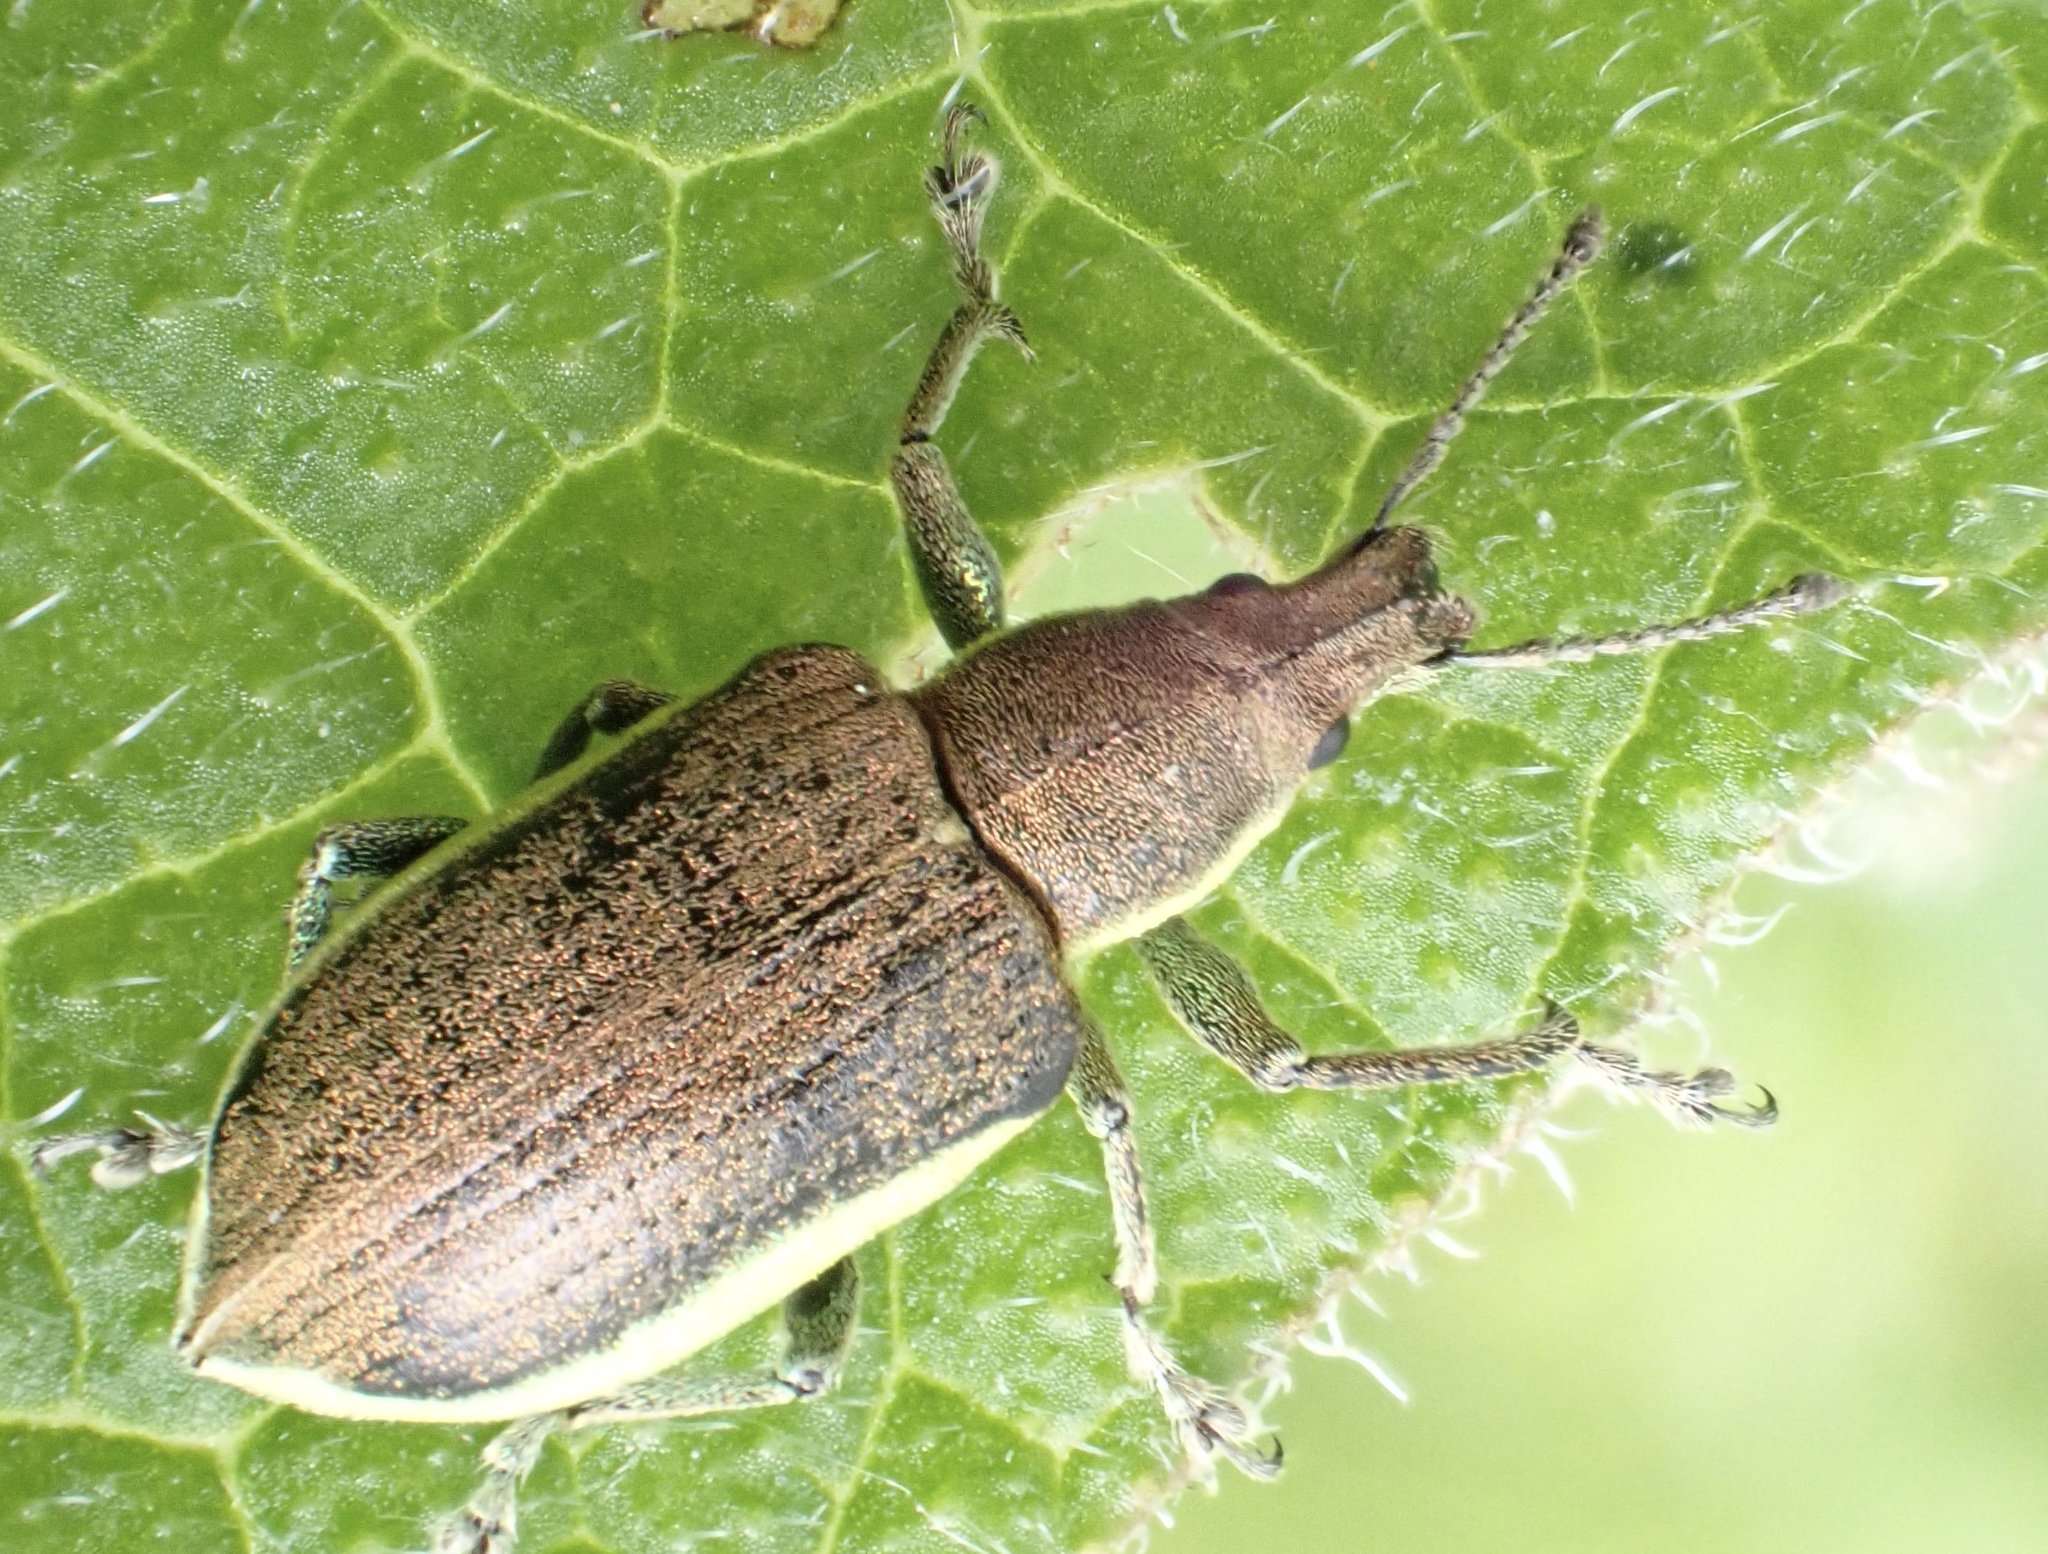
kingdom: Animalia
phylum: Arthropoda
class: Insecta
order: Coleoptera
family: Curculionidae
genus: Chlorophanus
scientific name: Chlorophanus viridis
